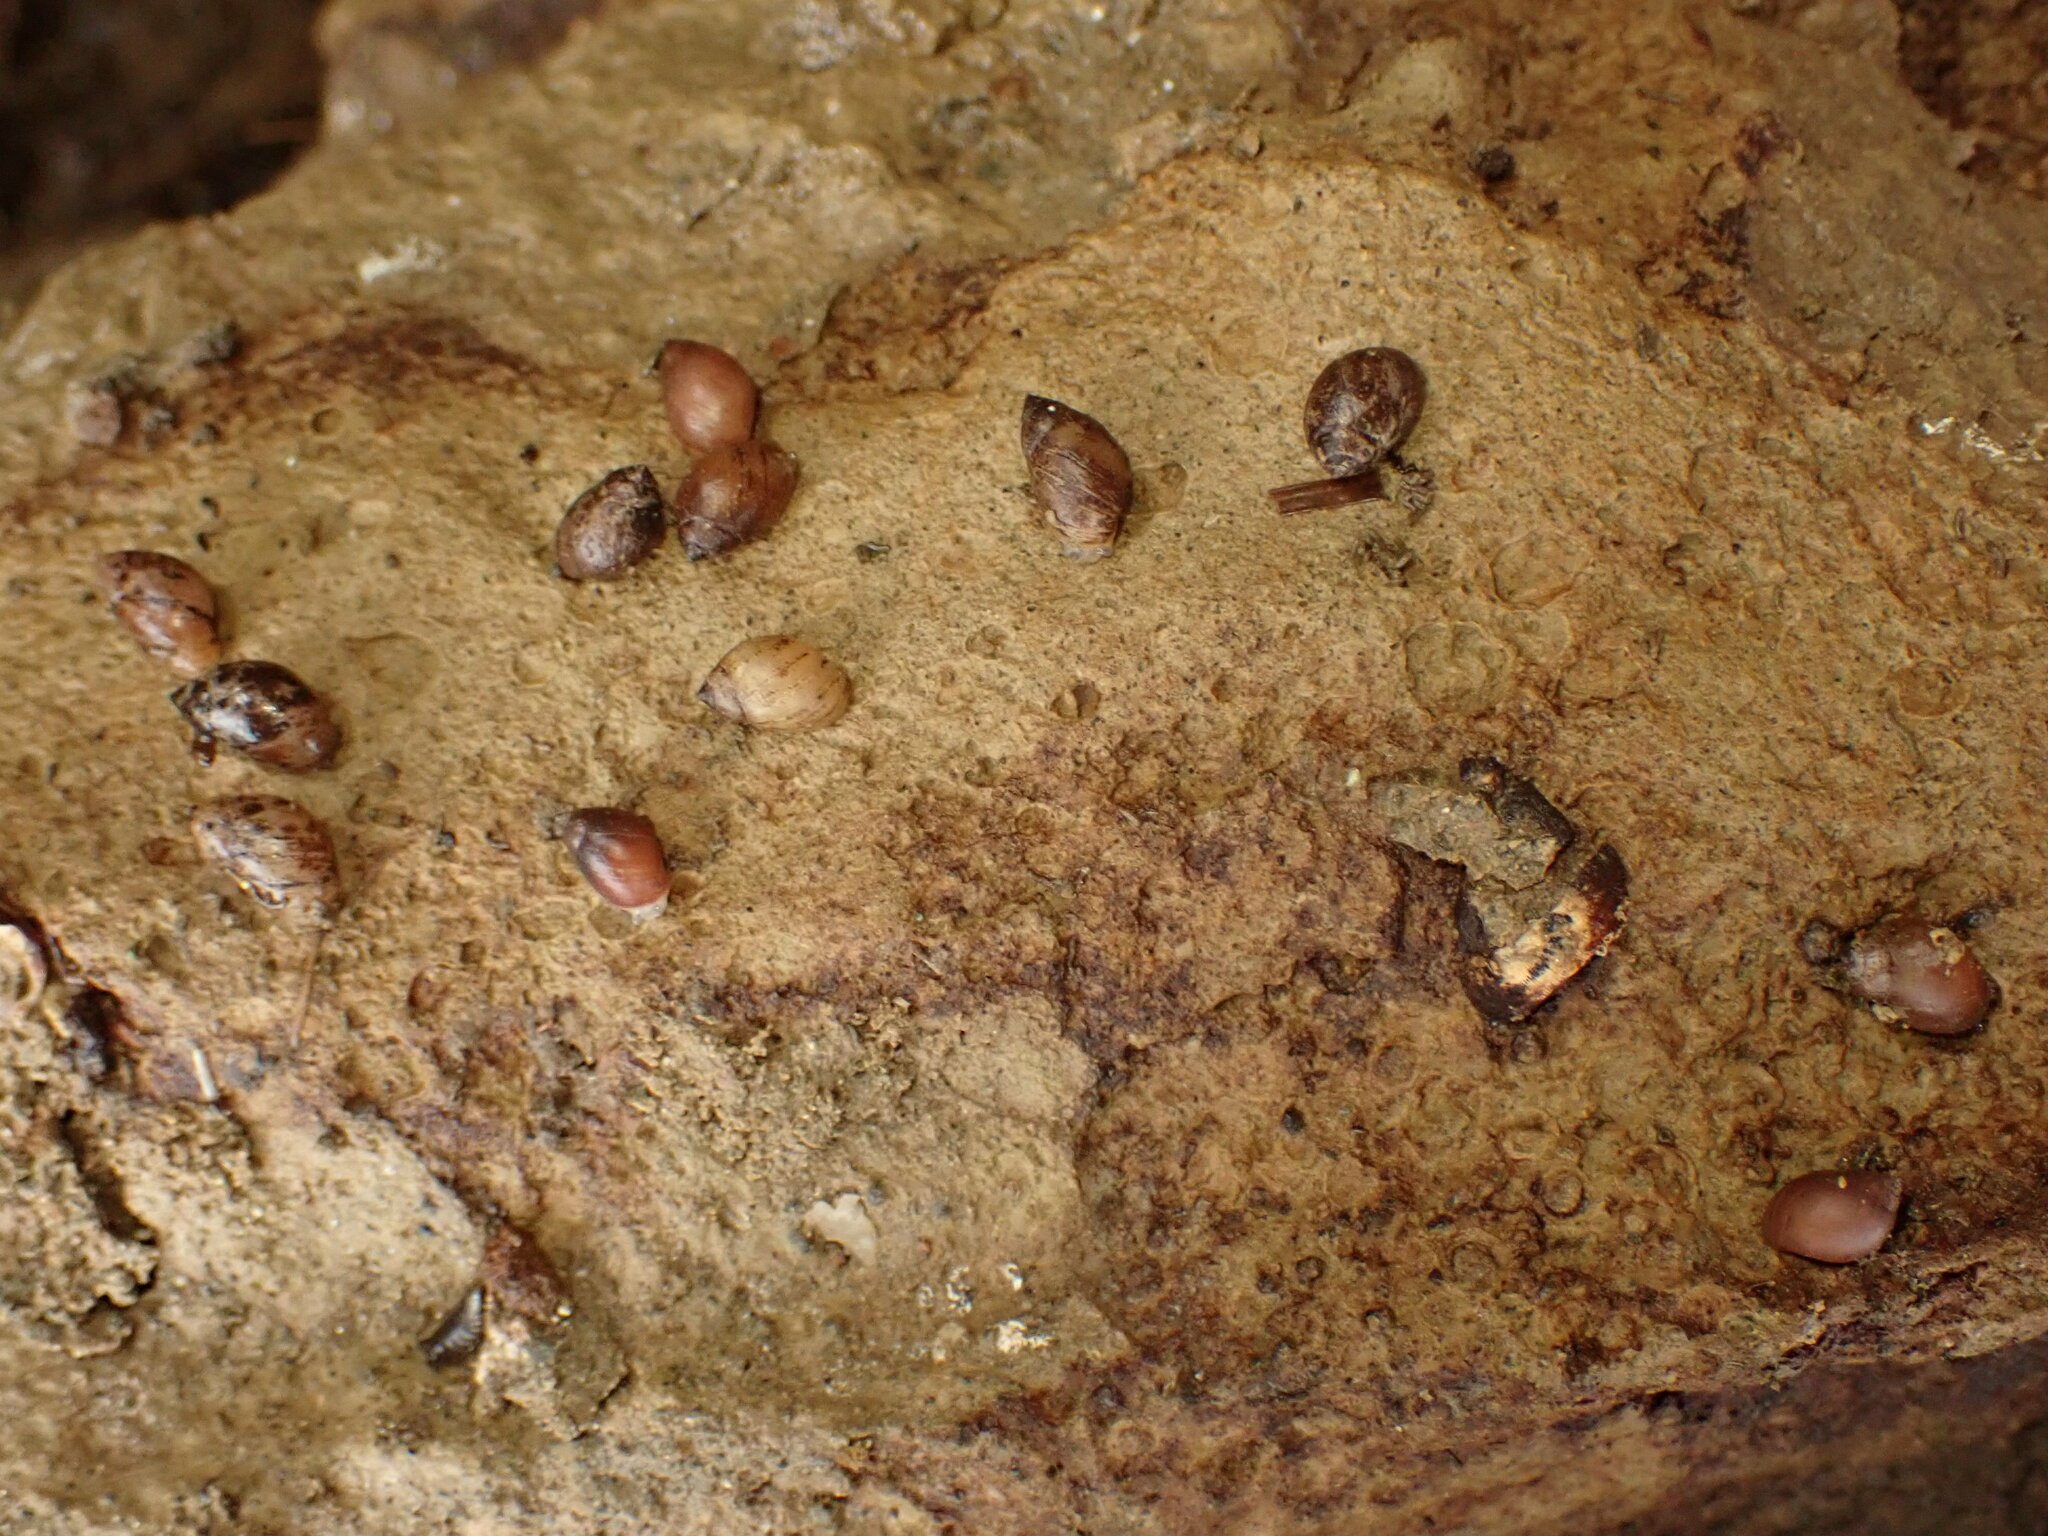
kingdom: Animalia
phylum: Mollusca
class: Gastropoda
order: Ellobiida
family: Ellobiidae
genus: Marinula
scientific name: Marinula filholi
